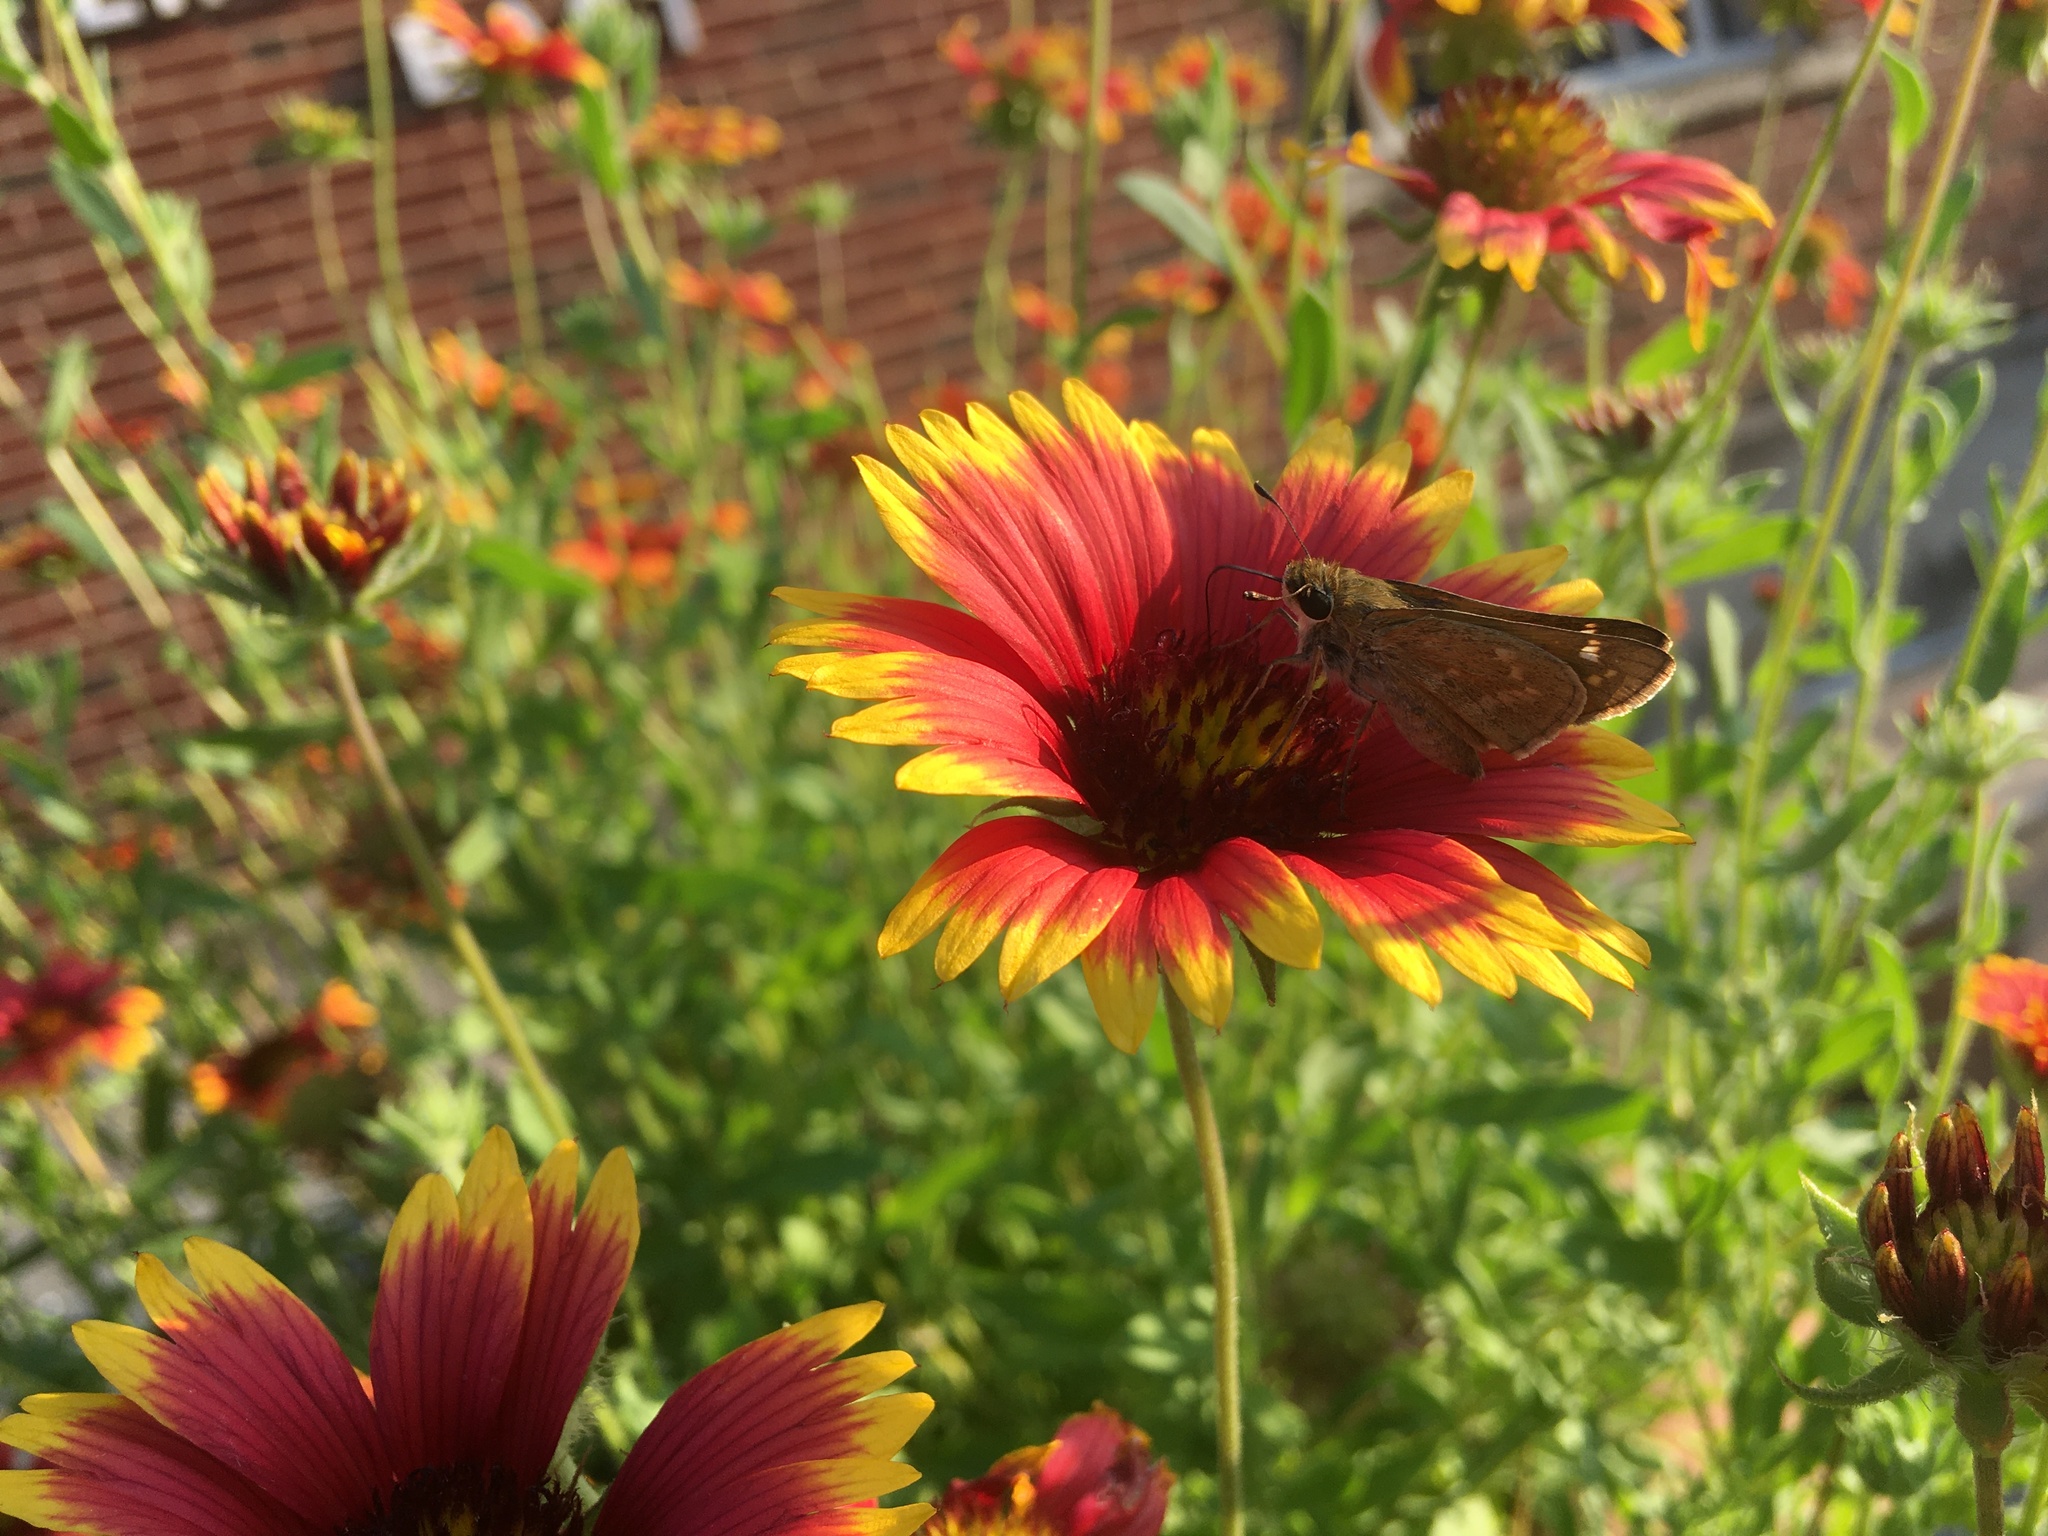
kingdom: Animalia
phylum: Arthropoda
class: Insecta
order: Lepidoptera
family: Hesperiidae
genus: Atalopedes
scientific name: Atalopedes
